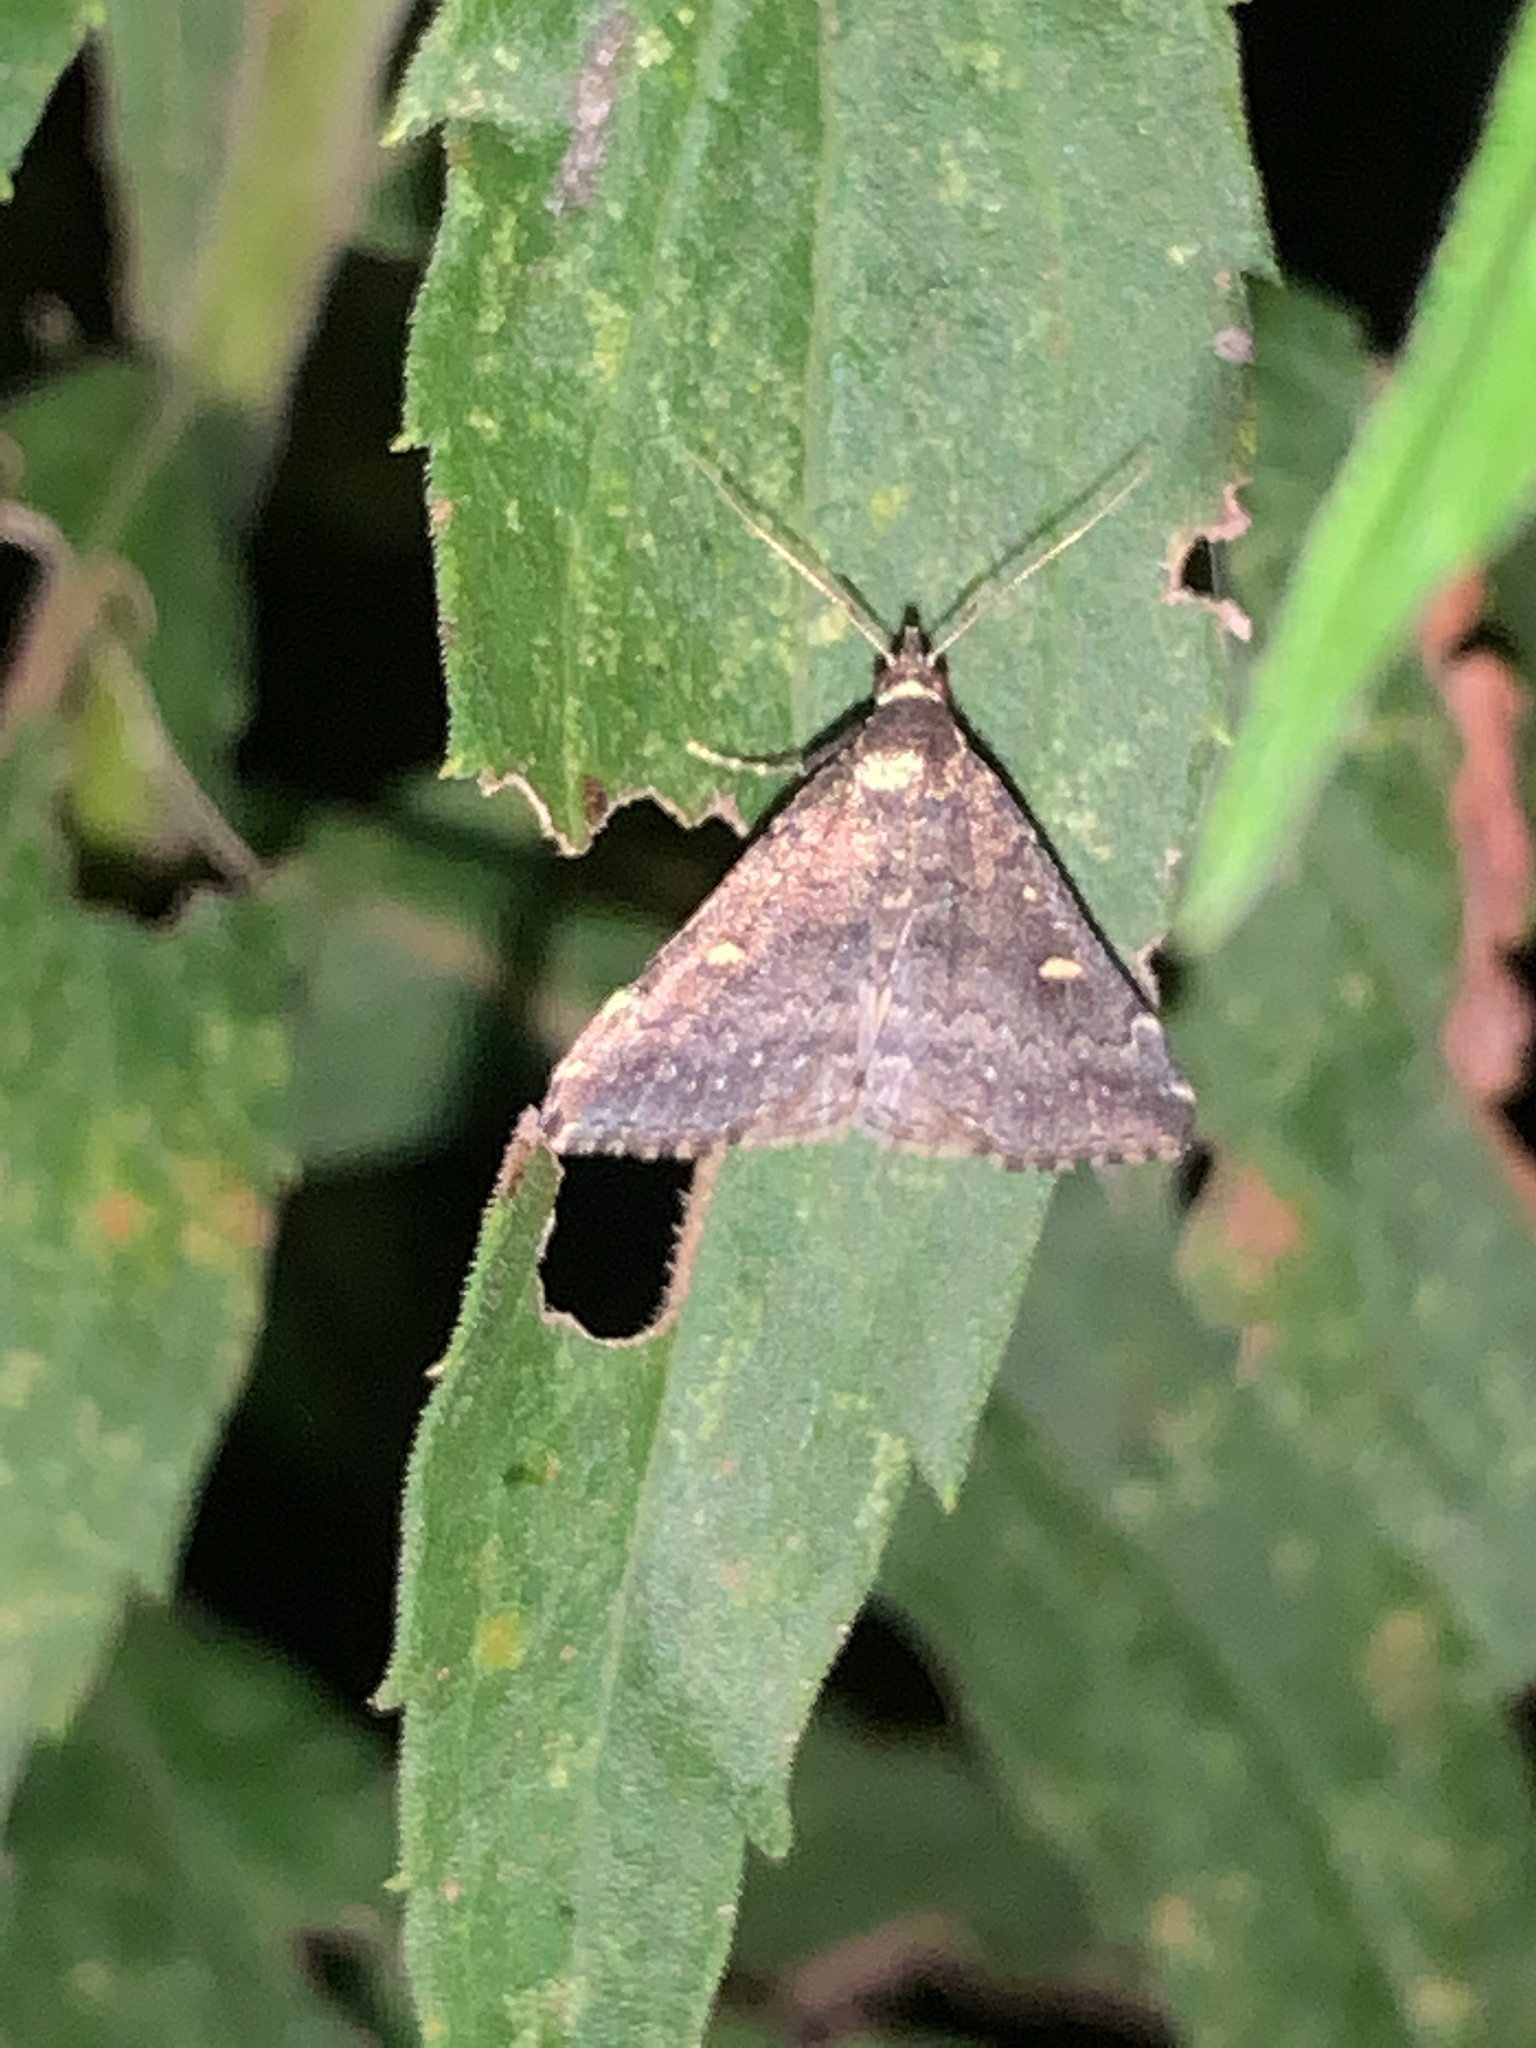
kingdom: Animalia
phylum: Arthropoda
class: Insecta
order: Lepidoptera
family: Erebidae
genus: Tetanolita
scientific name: Tetanolita mynesalis
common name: Smoky tetanolita moth
